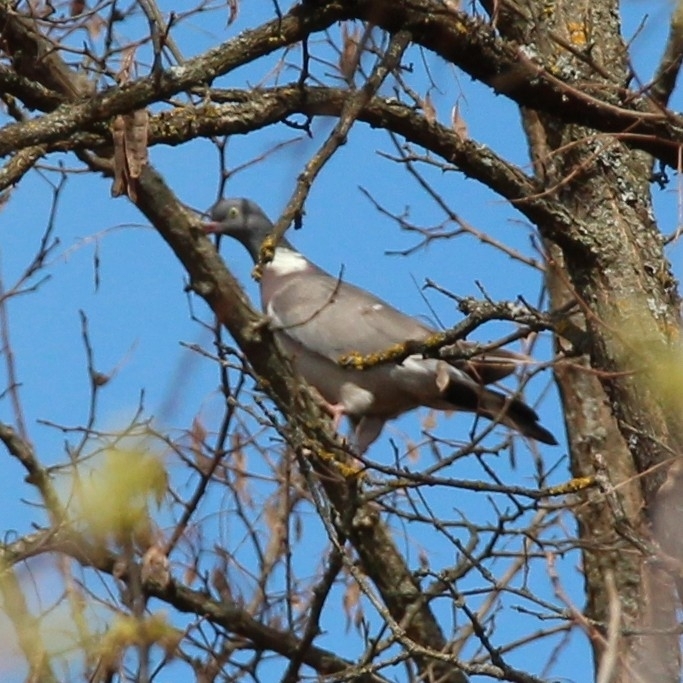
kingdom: Animalia
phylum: Chordata
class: Aves
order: Columbiformes
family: Columbidae
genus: Columba
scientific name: Columba palumbus
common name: Common wood pigeon
